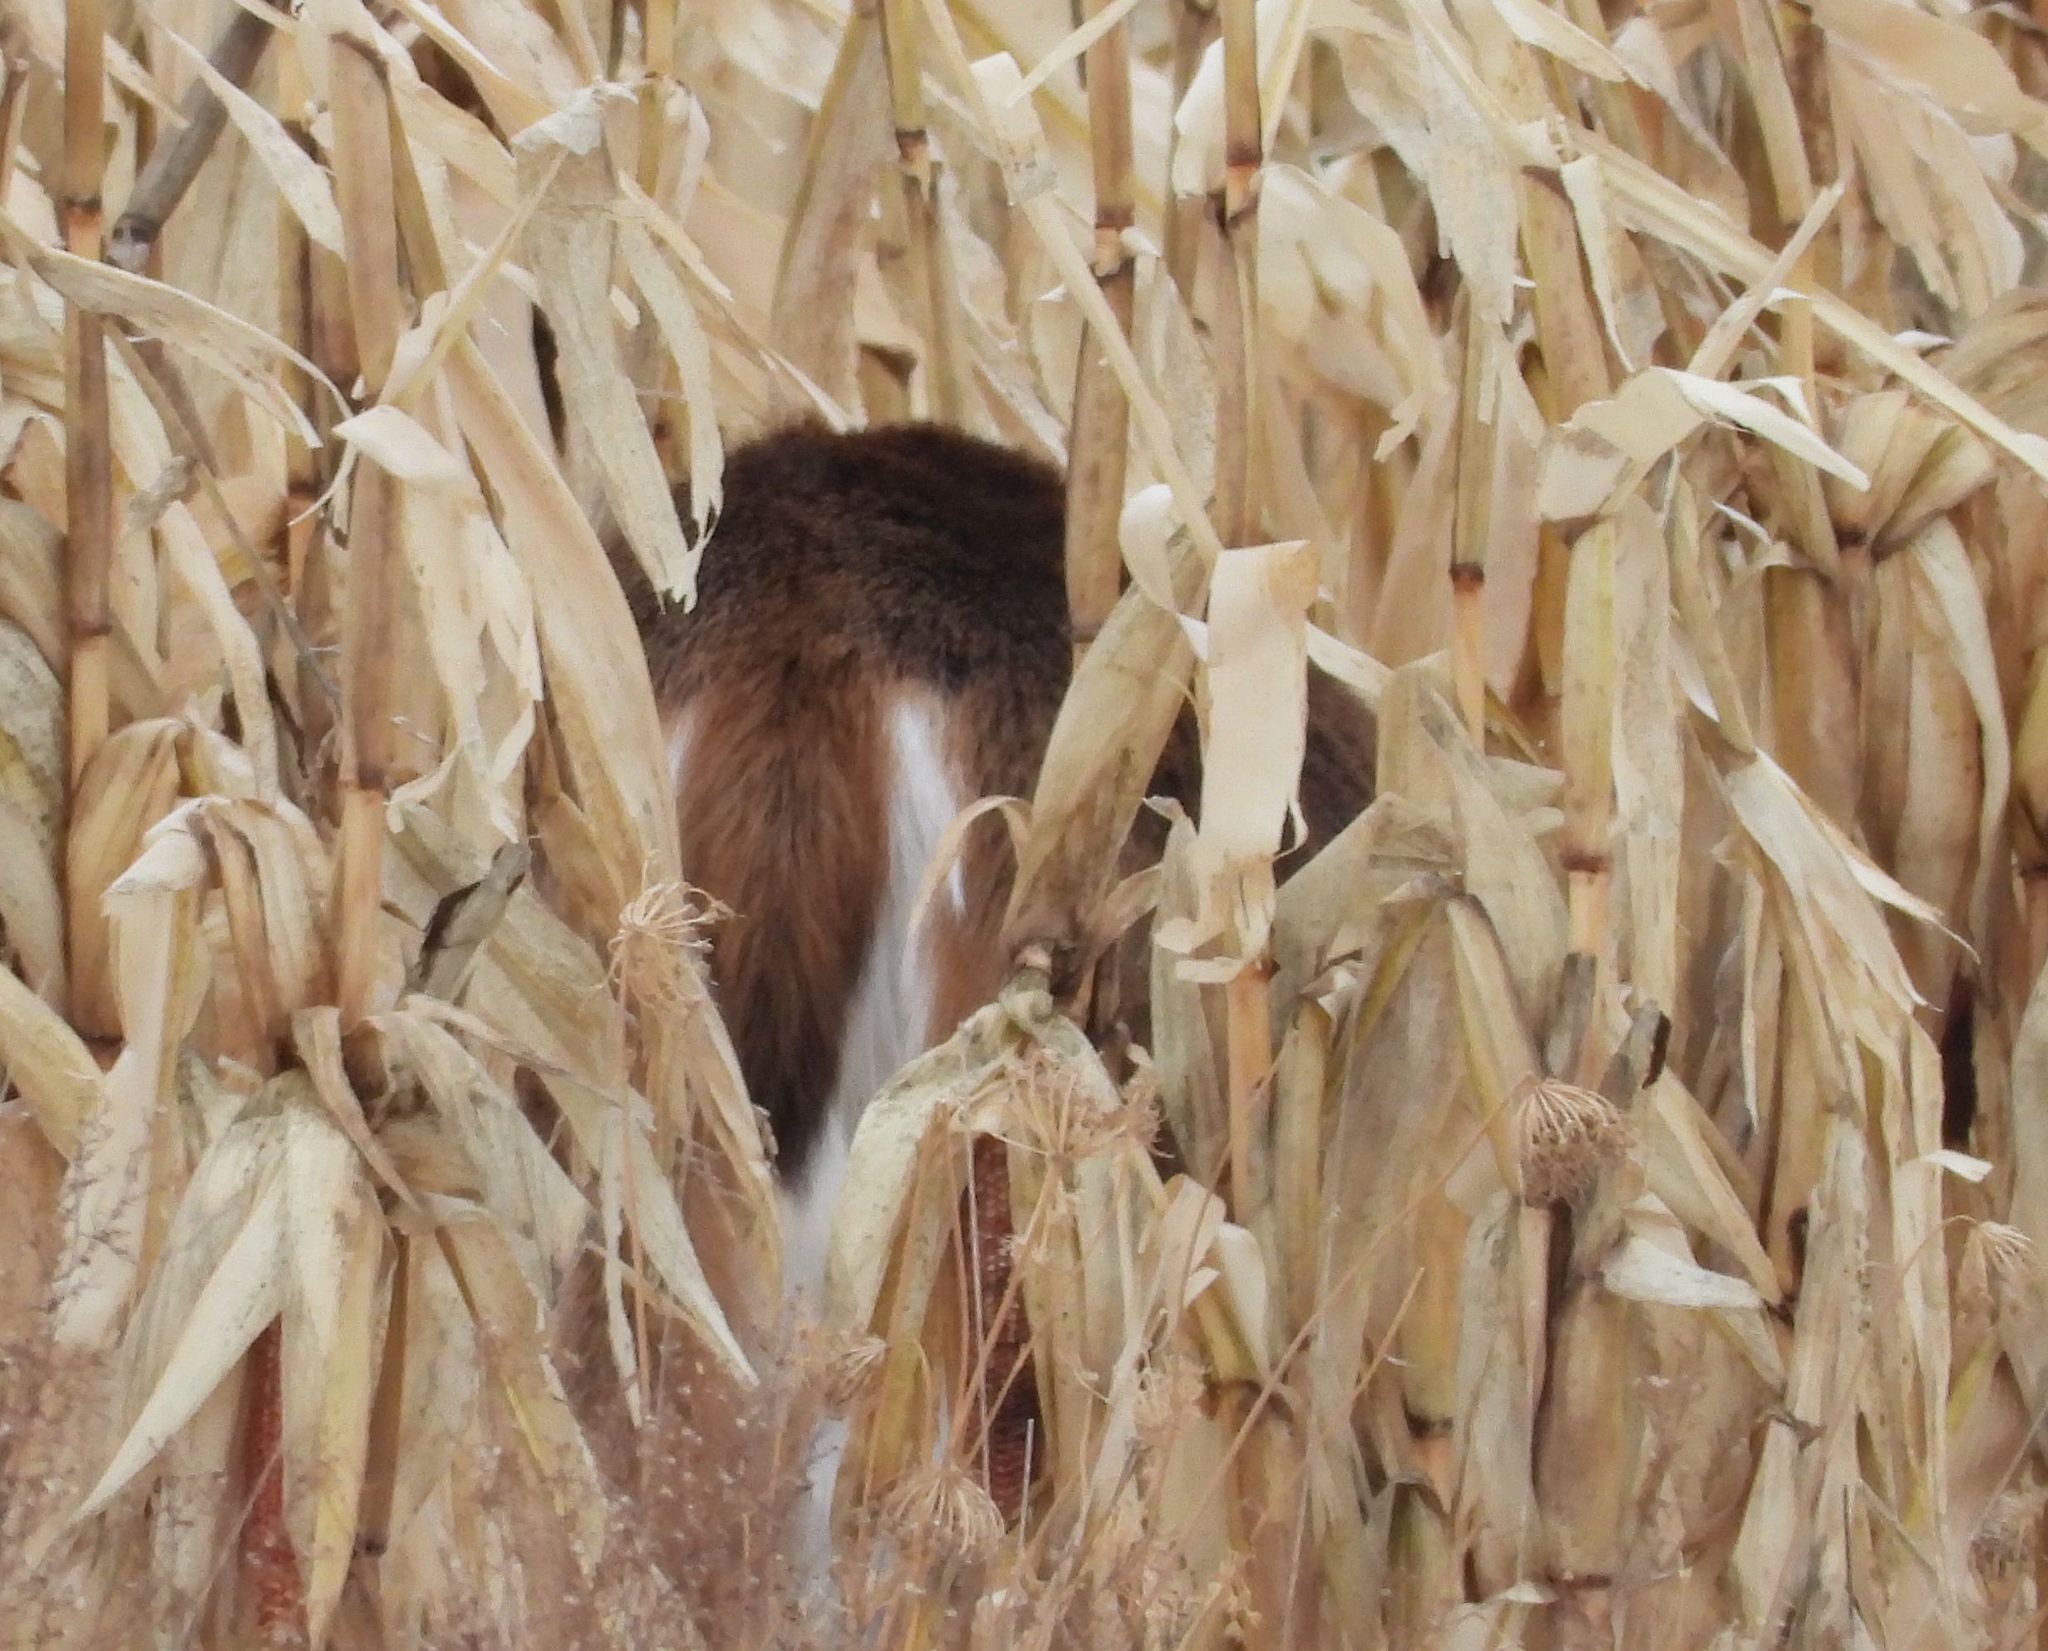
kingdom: Animalia
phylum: Chordata
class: Mammalia
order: Artiodactyla
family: Cervidae
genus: Odocoileus
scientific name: Odocoileus virginianus
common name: White-tailed deer
